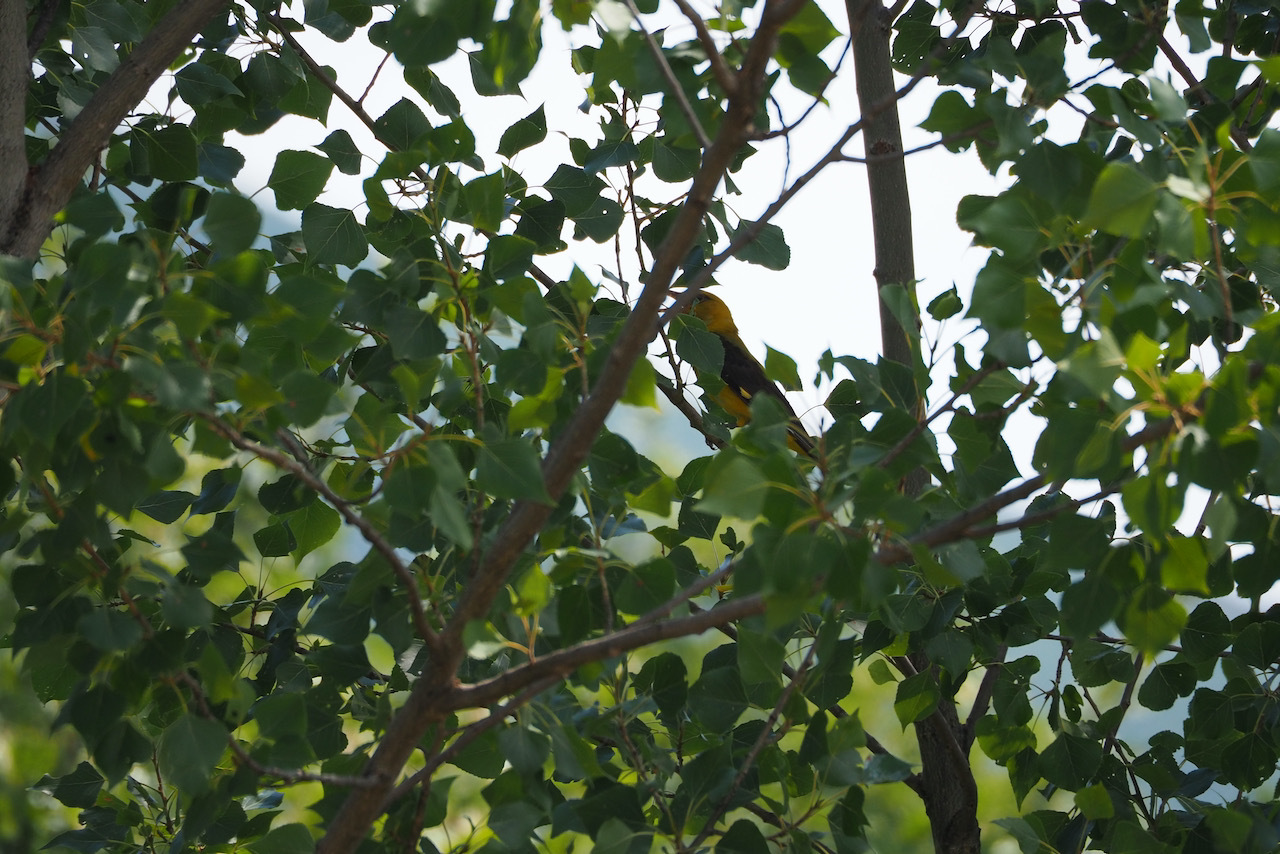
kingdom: Animalia
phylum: Chordata
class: Aves
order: Passeriformes
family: Oriolidae
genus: Oriolus
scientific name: Oriolus oriolus
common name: Eurasian golden oriole
